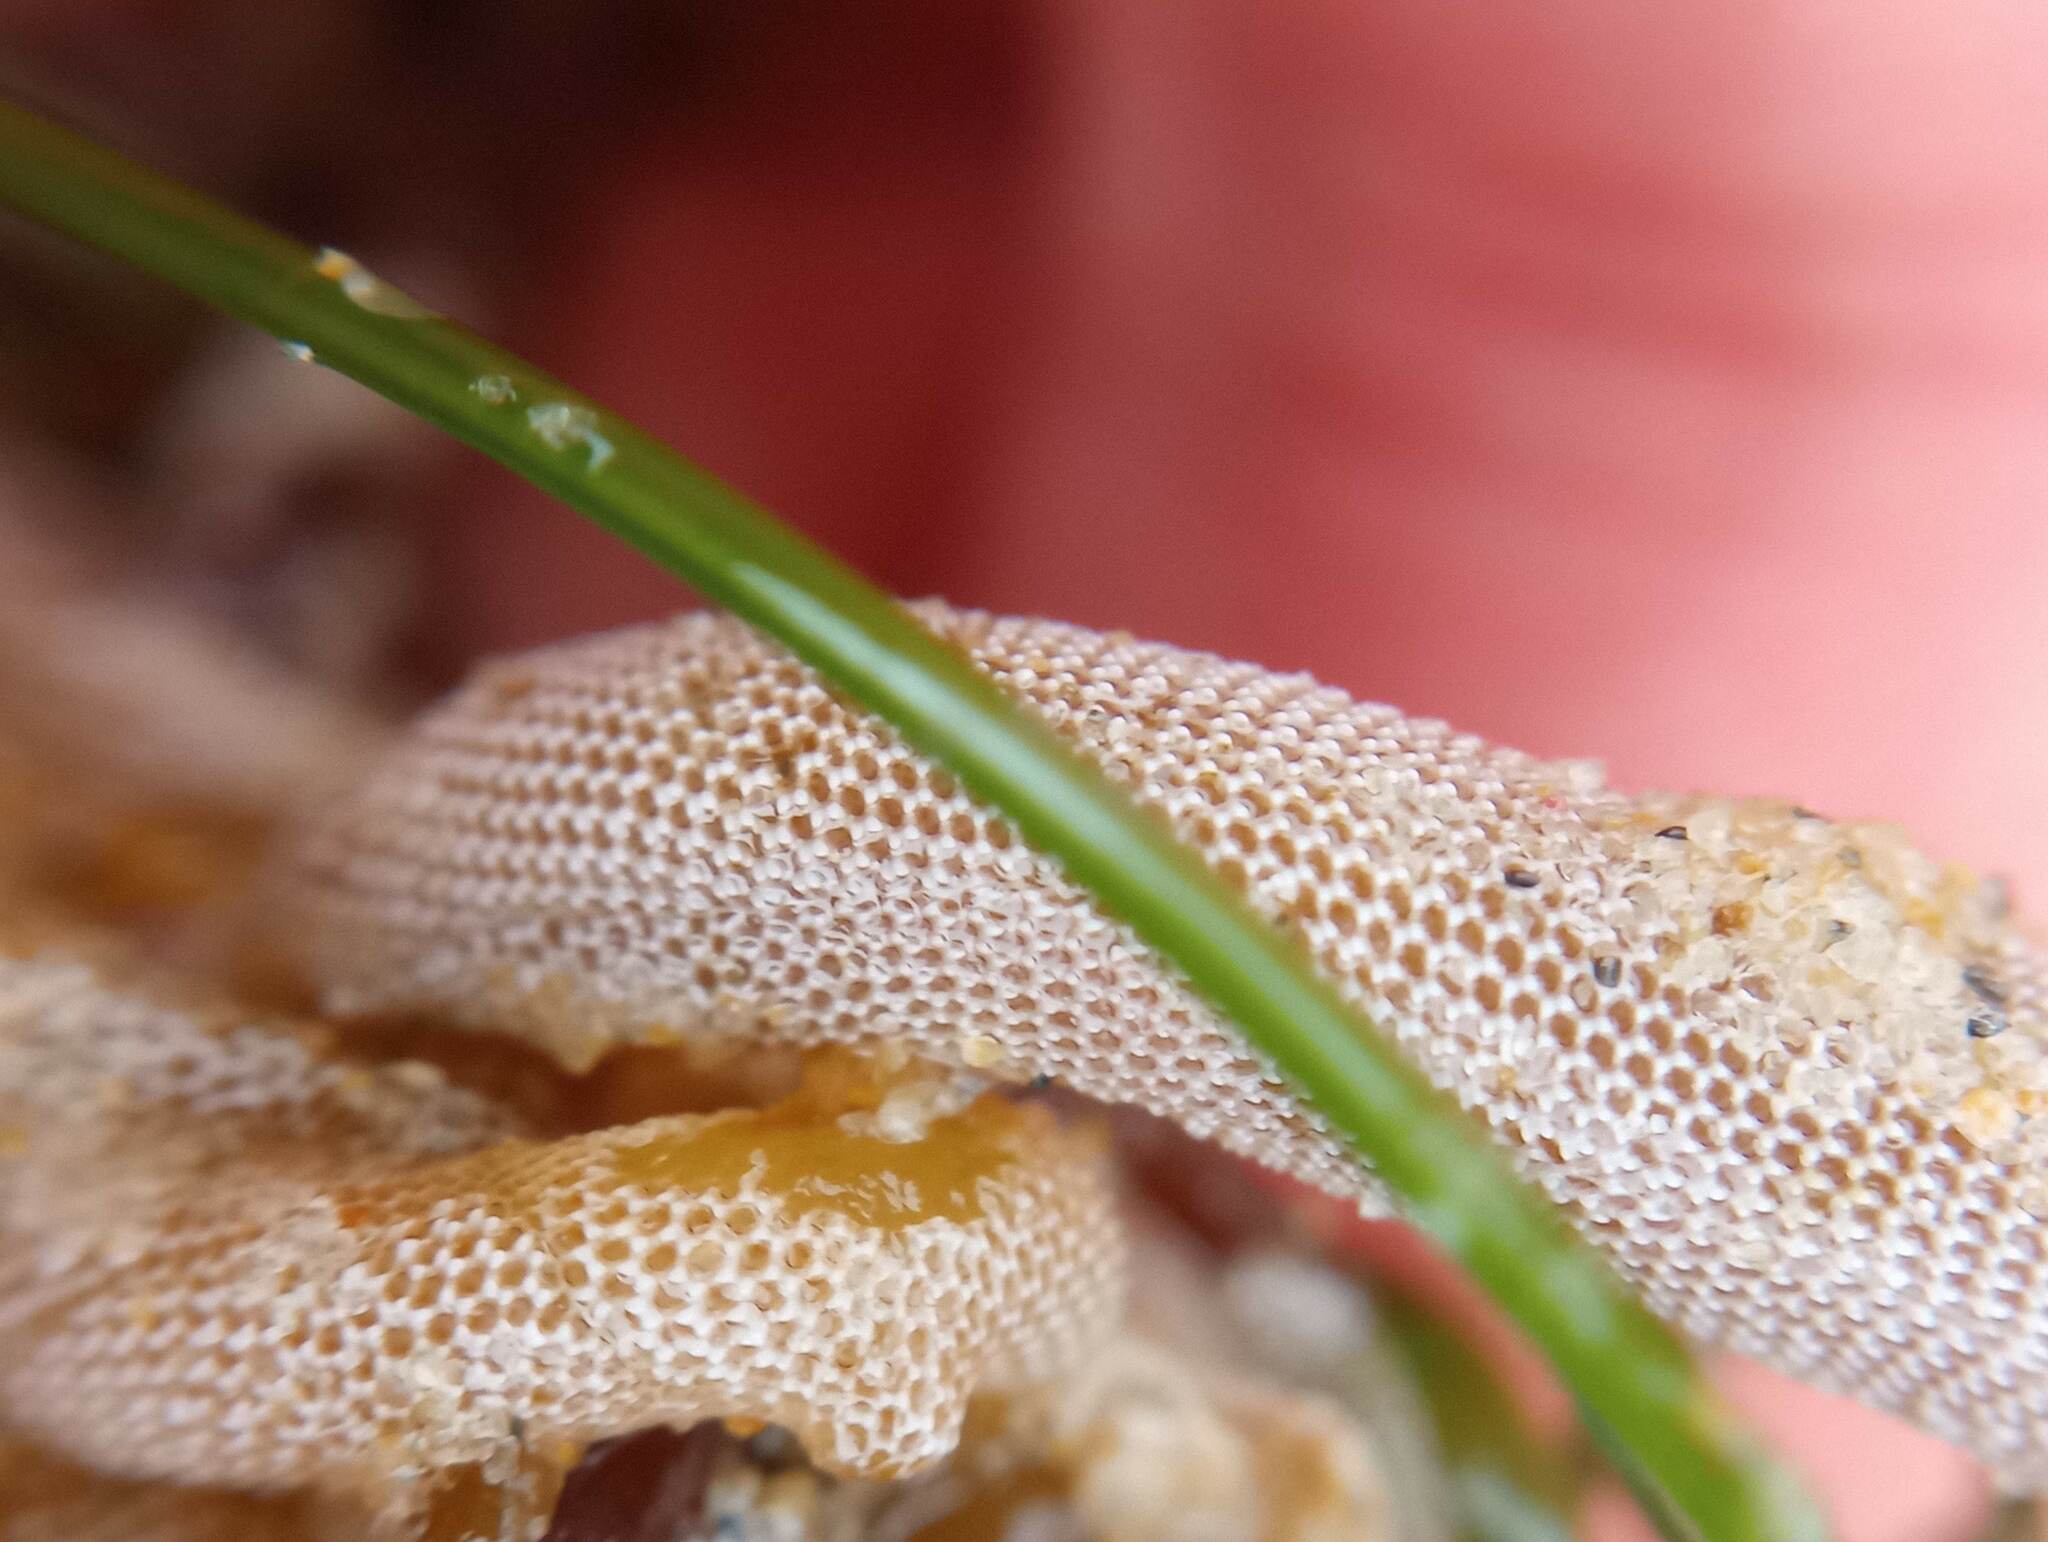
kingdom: Animalia
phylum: Bryozoa
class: Gymnolaemata
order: Cheilostomatida
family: Membraniporidae
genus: Jellyella
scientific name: Jellyella tuberculata
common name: Sargassum bryozoan
